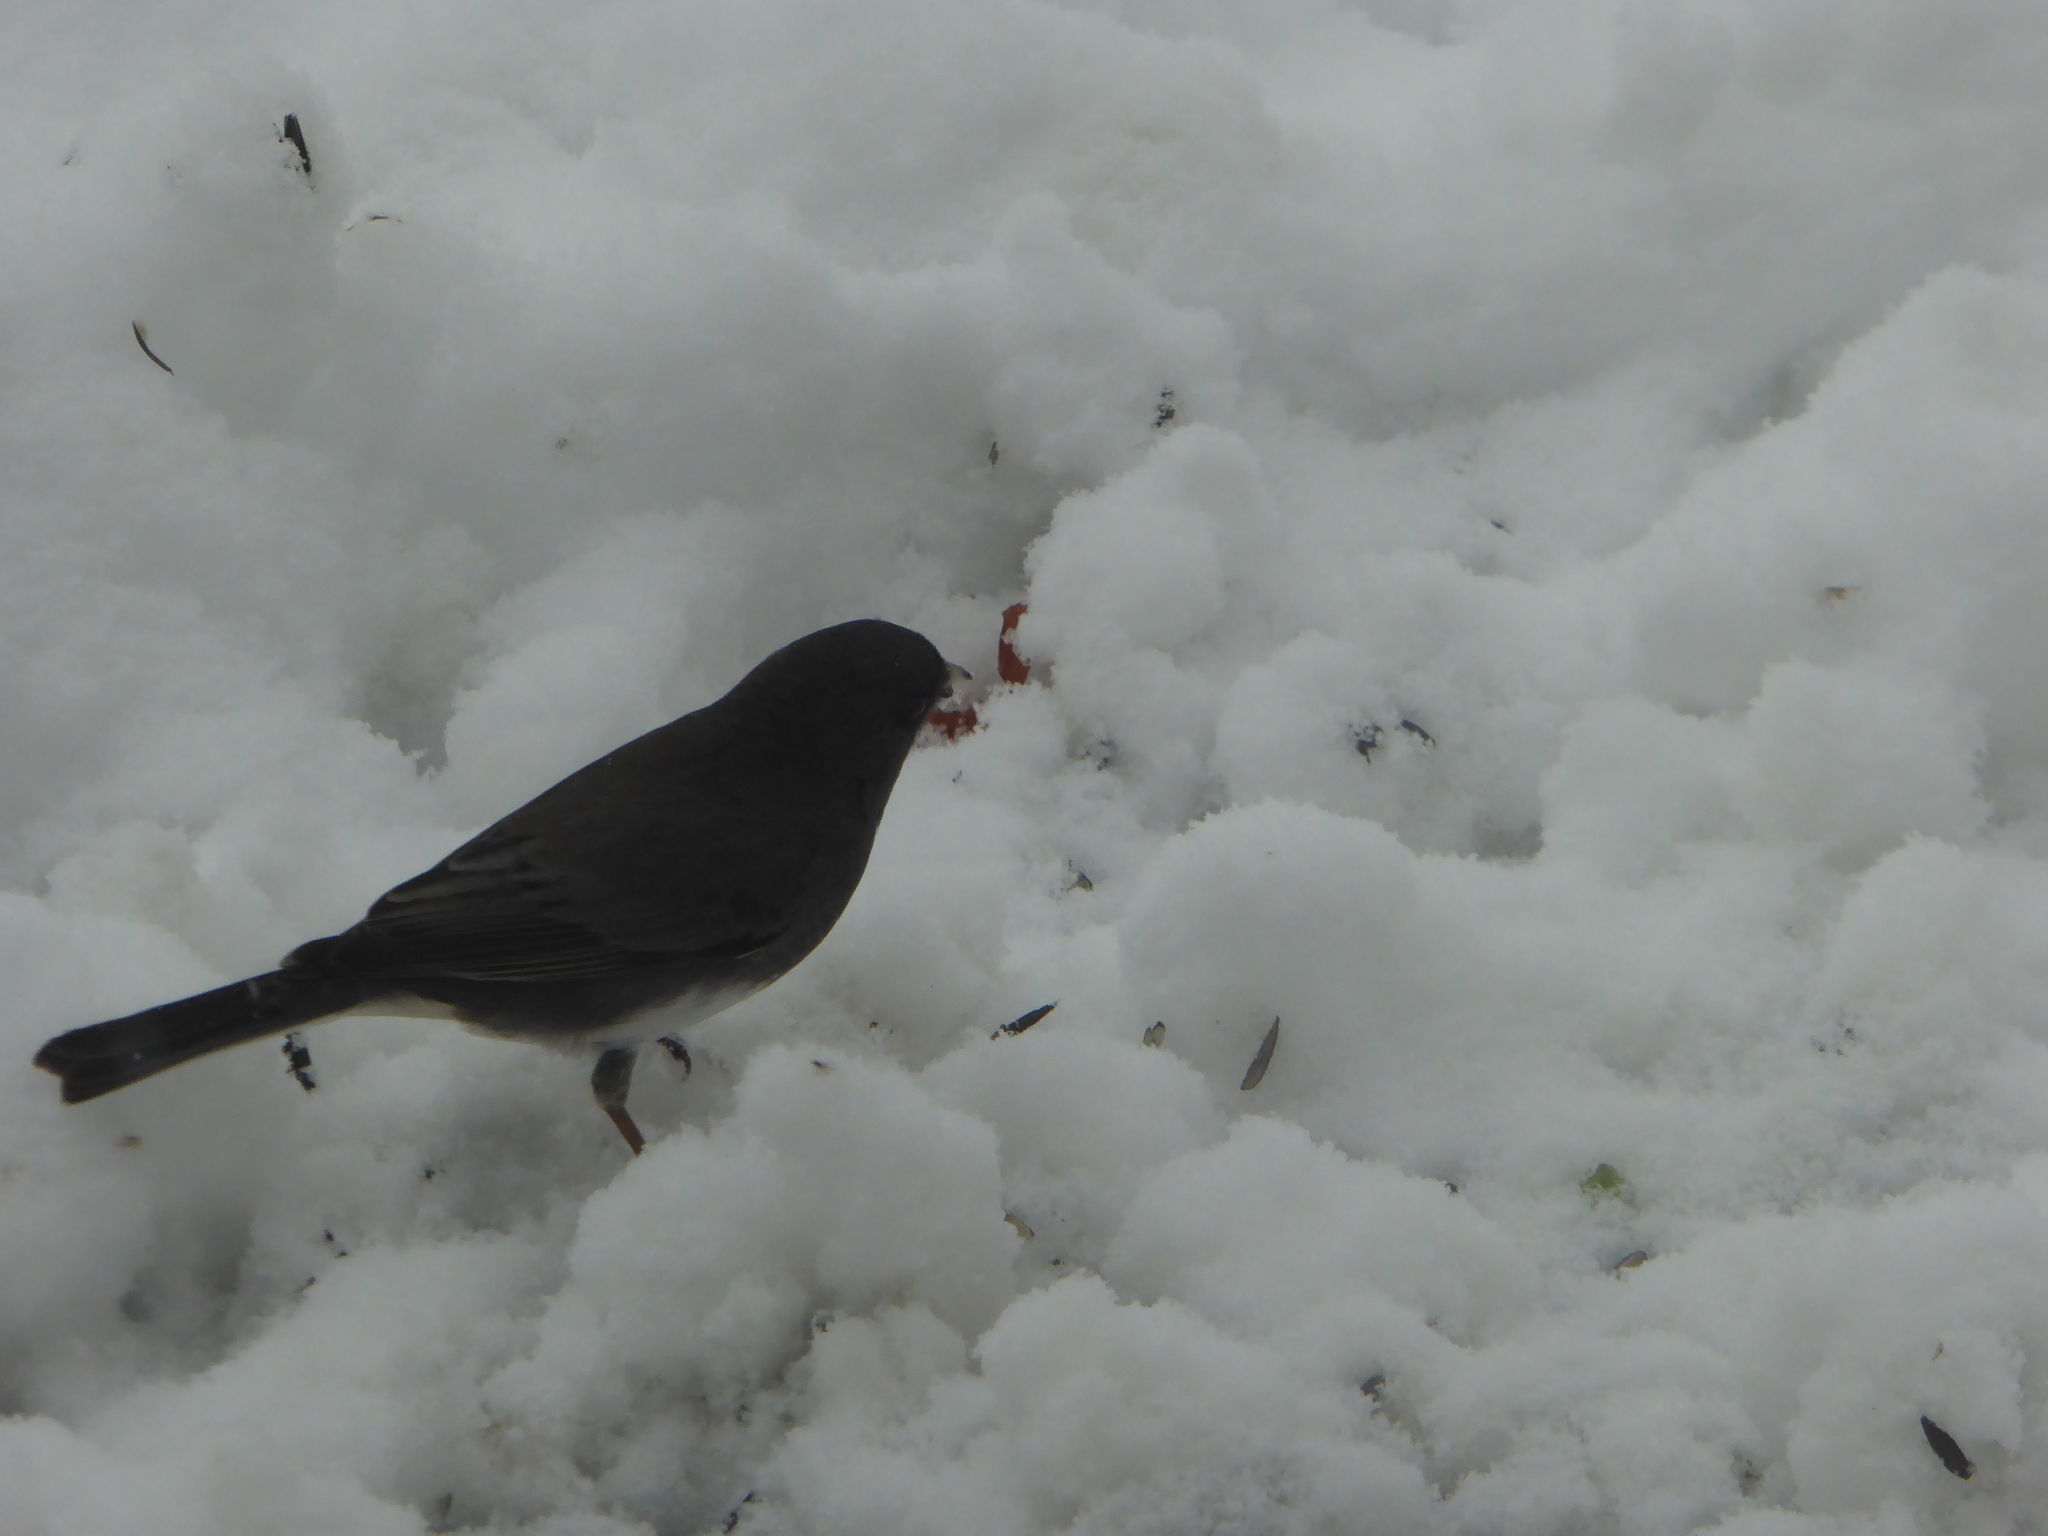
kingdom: Animalia
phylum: Chordata
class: Aves
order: Passeriformes
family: Passerellidae
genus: Junco
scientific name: Junco hyemalis
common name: Dark-eyed junco
